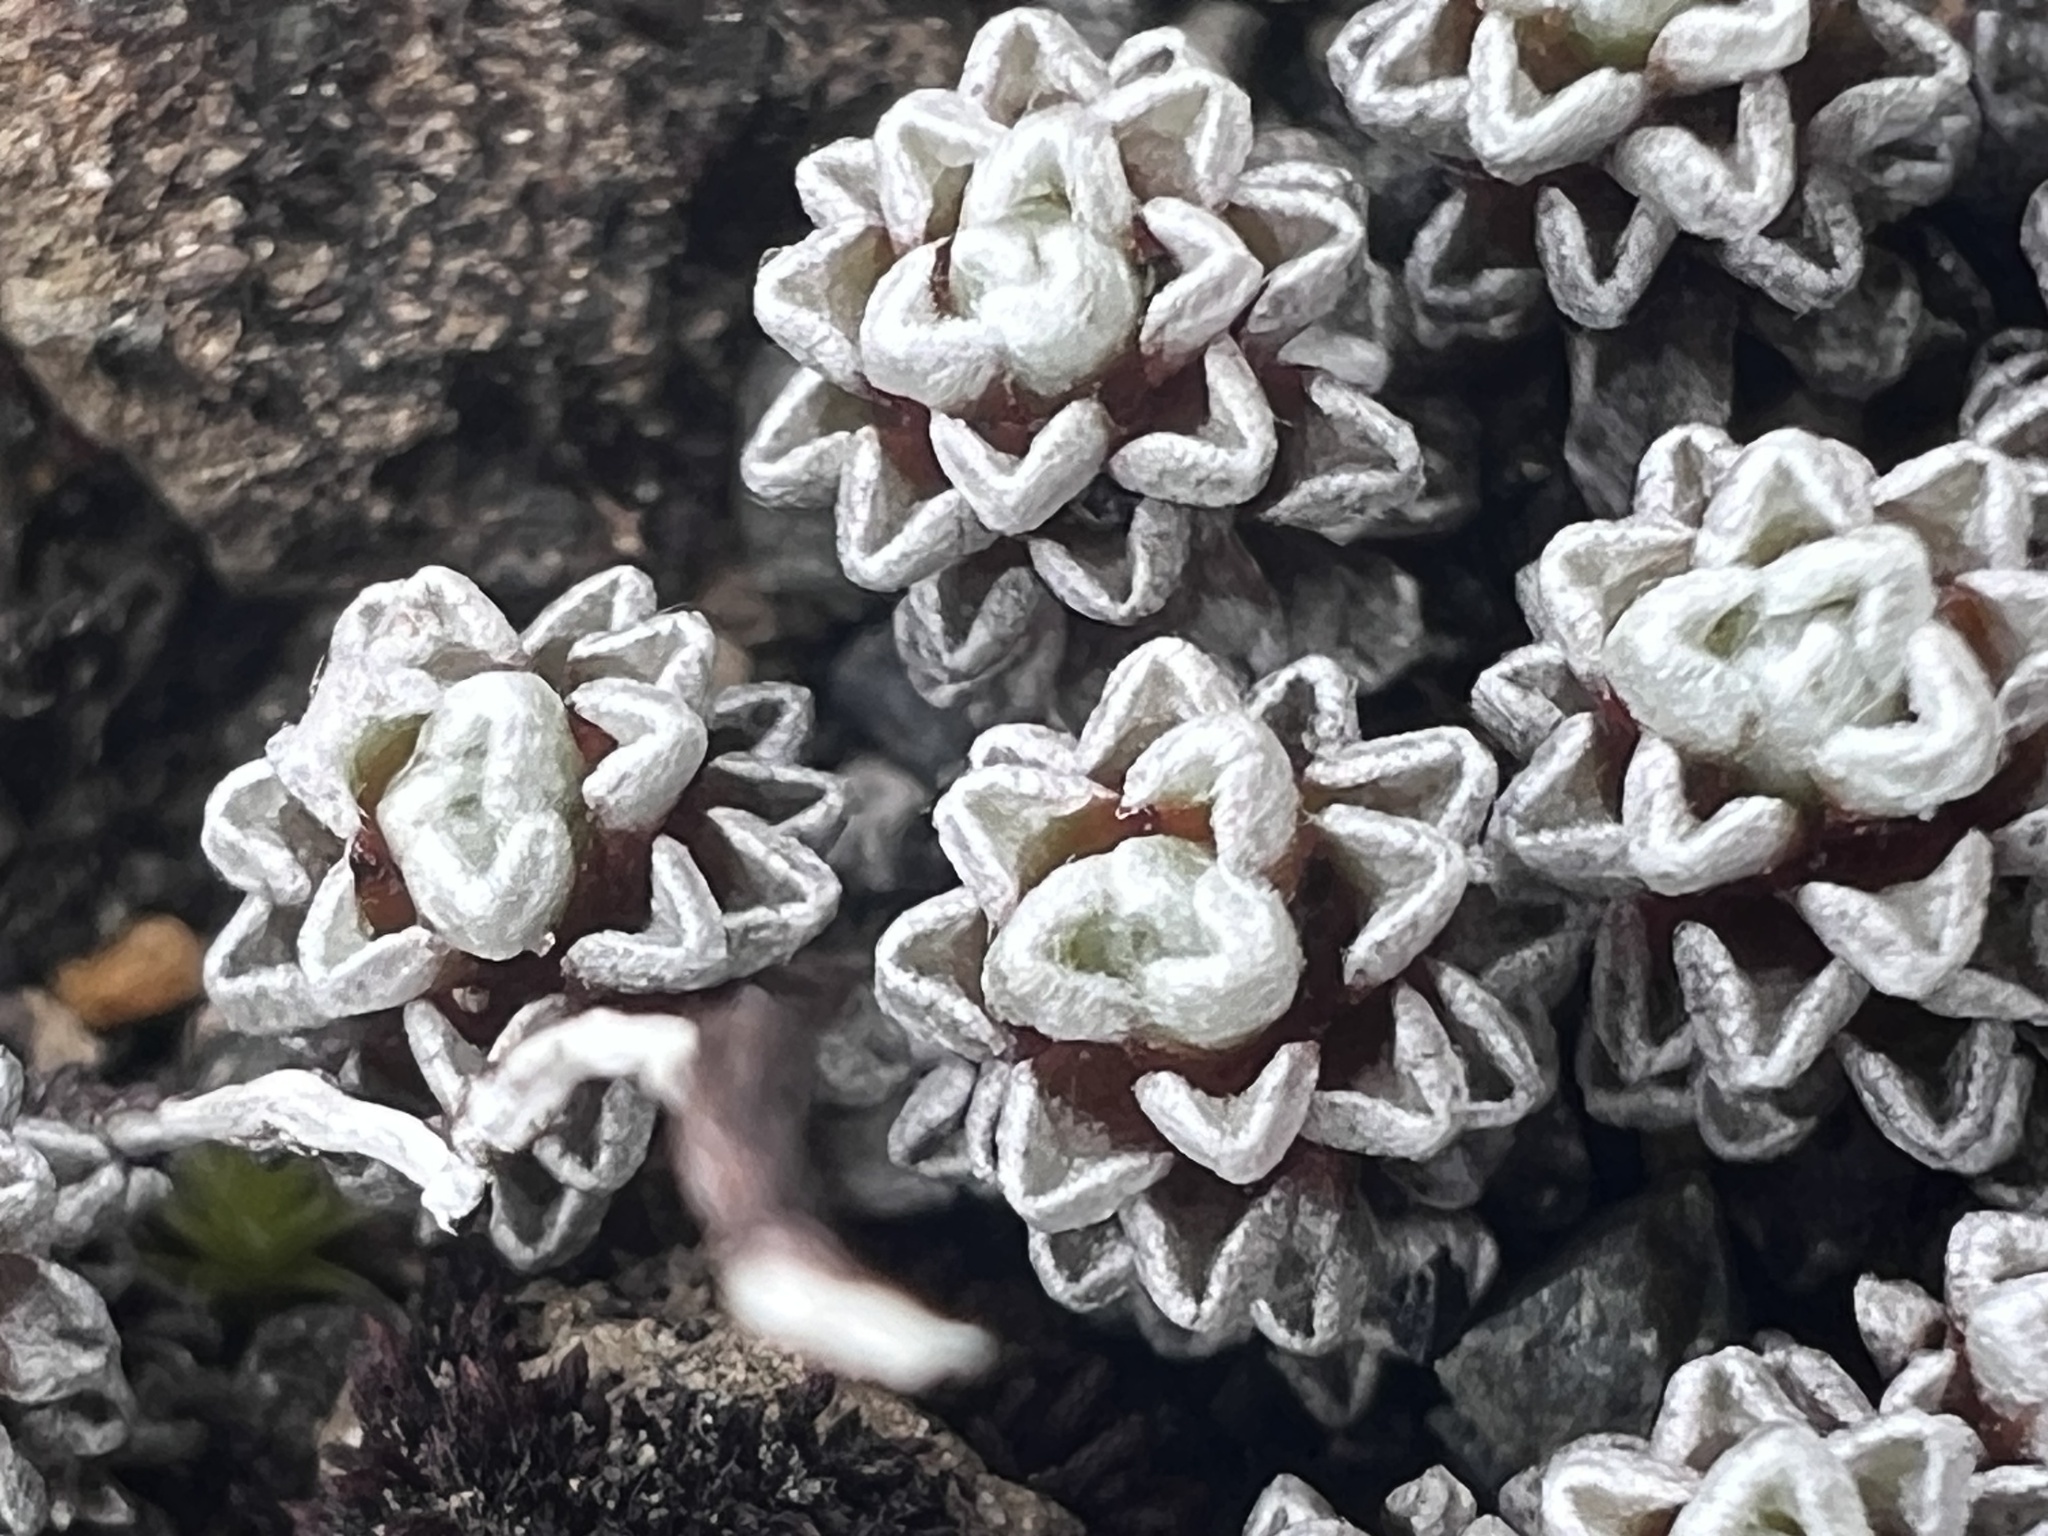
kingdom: Plantae
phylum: Tracheophyta
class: Magnoliopsida
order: Asterales
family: Asteraceae
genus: Raoulia
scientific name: Raoulia albosericea
